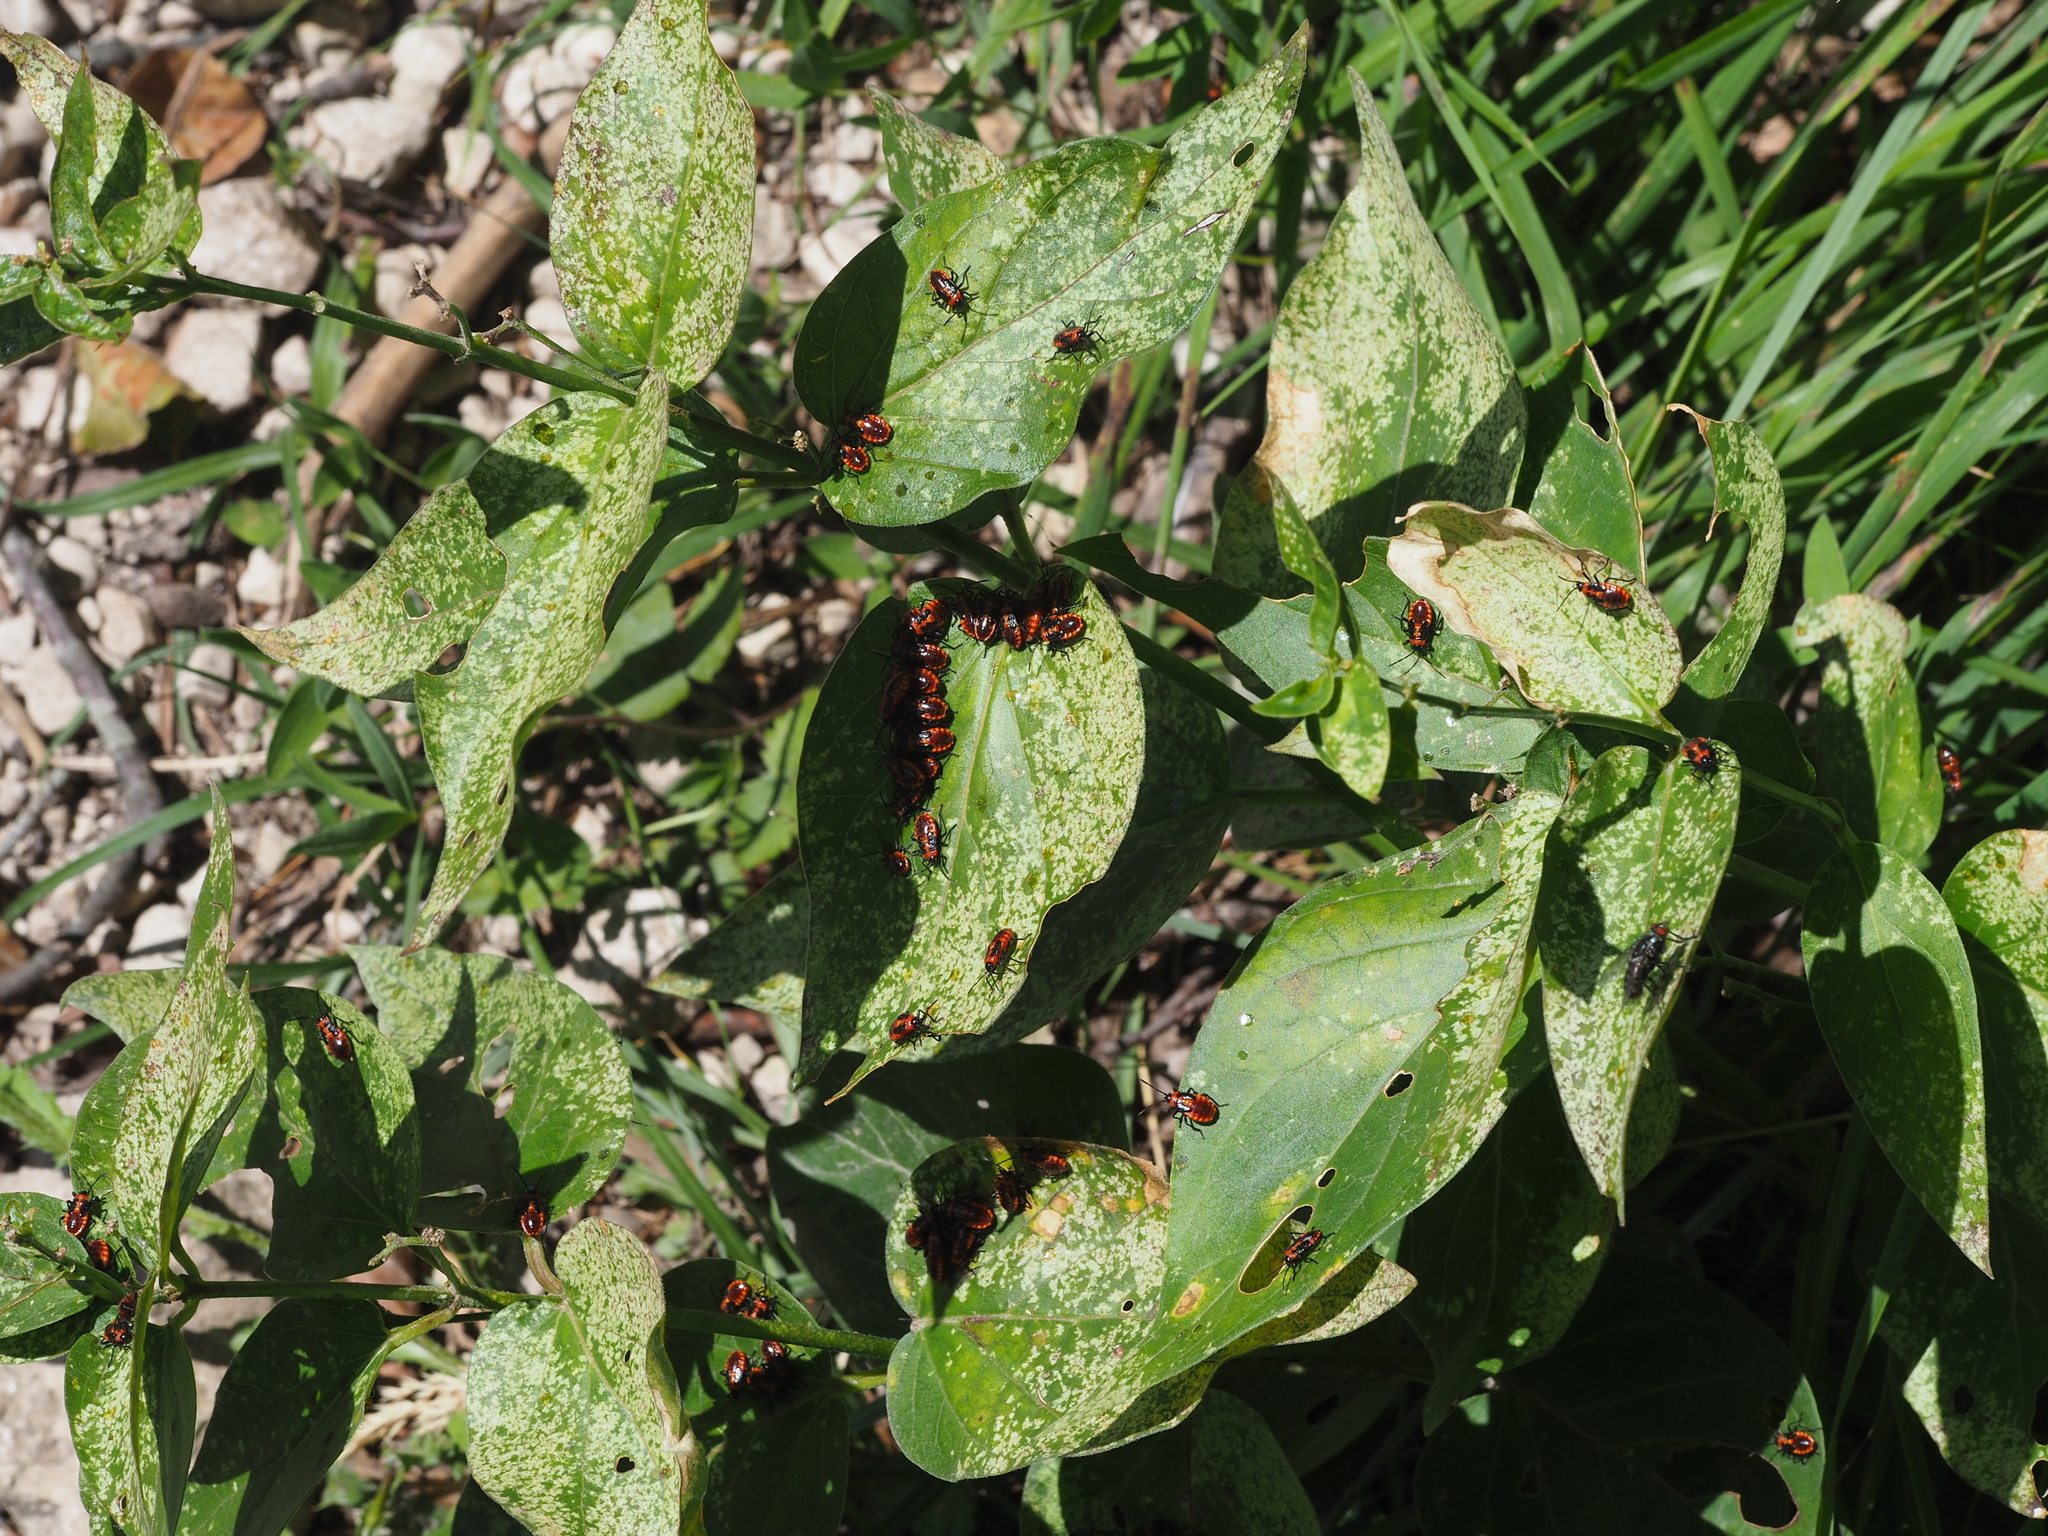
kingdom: Animalia
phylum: Arthropoda
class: Insecta
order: Hemiptera
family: Lygaeidae
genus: Tropidothorax
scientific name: Tropidothorax leucopterus
